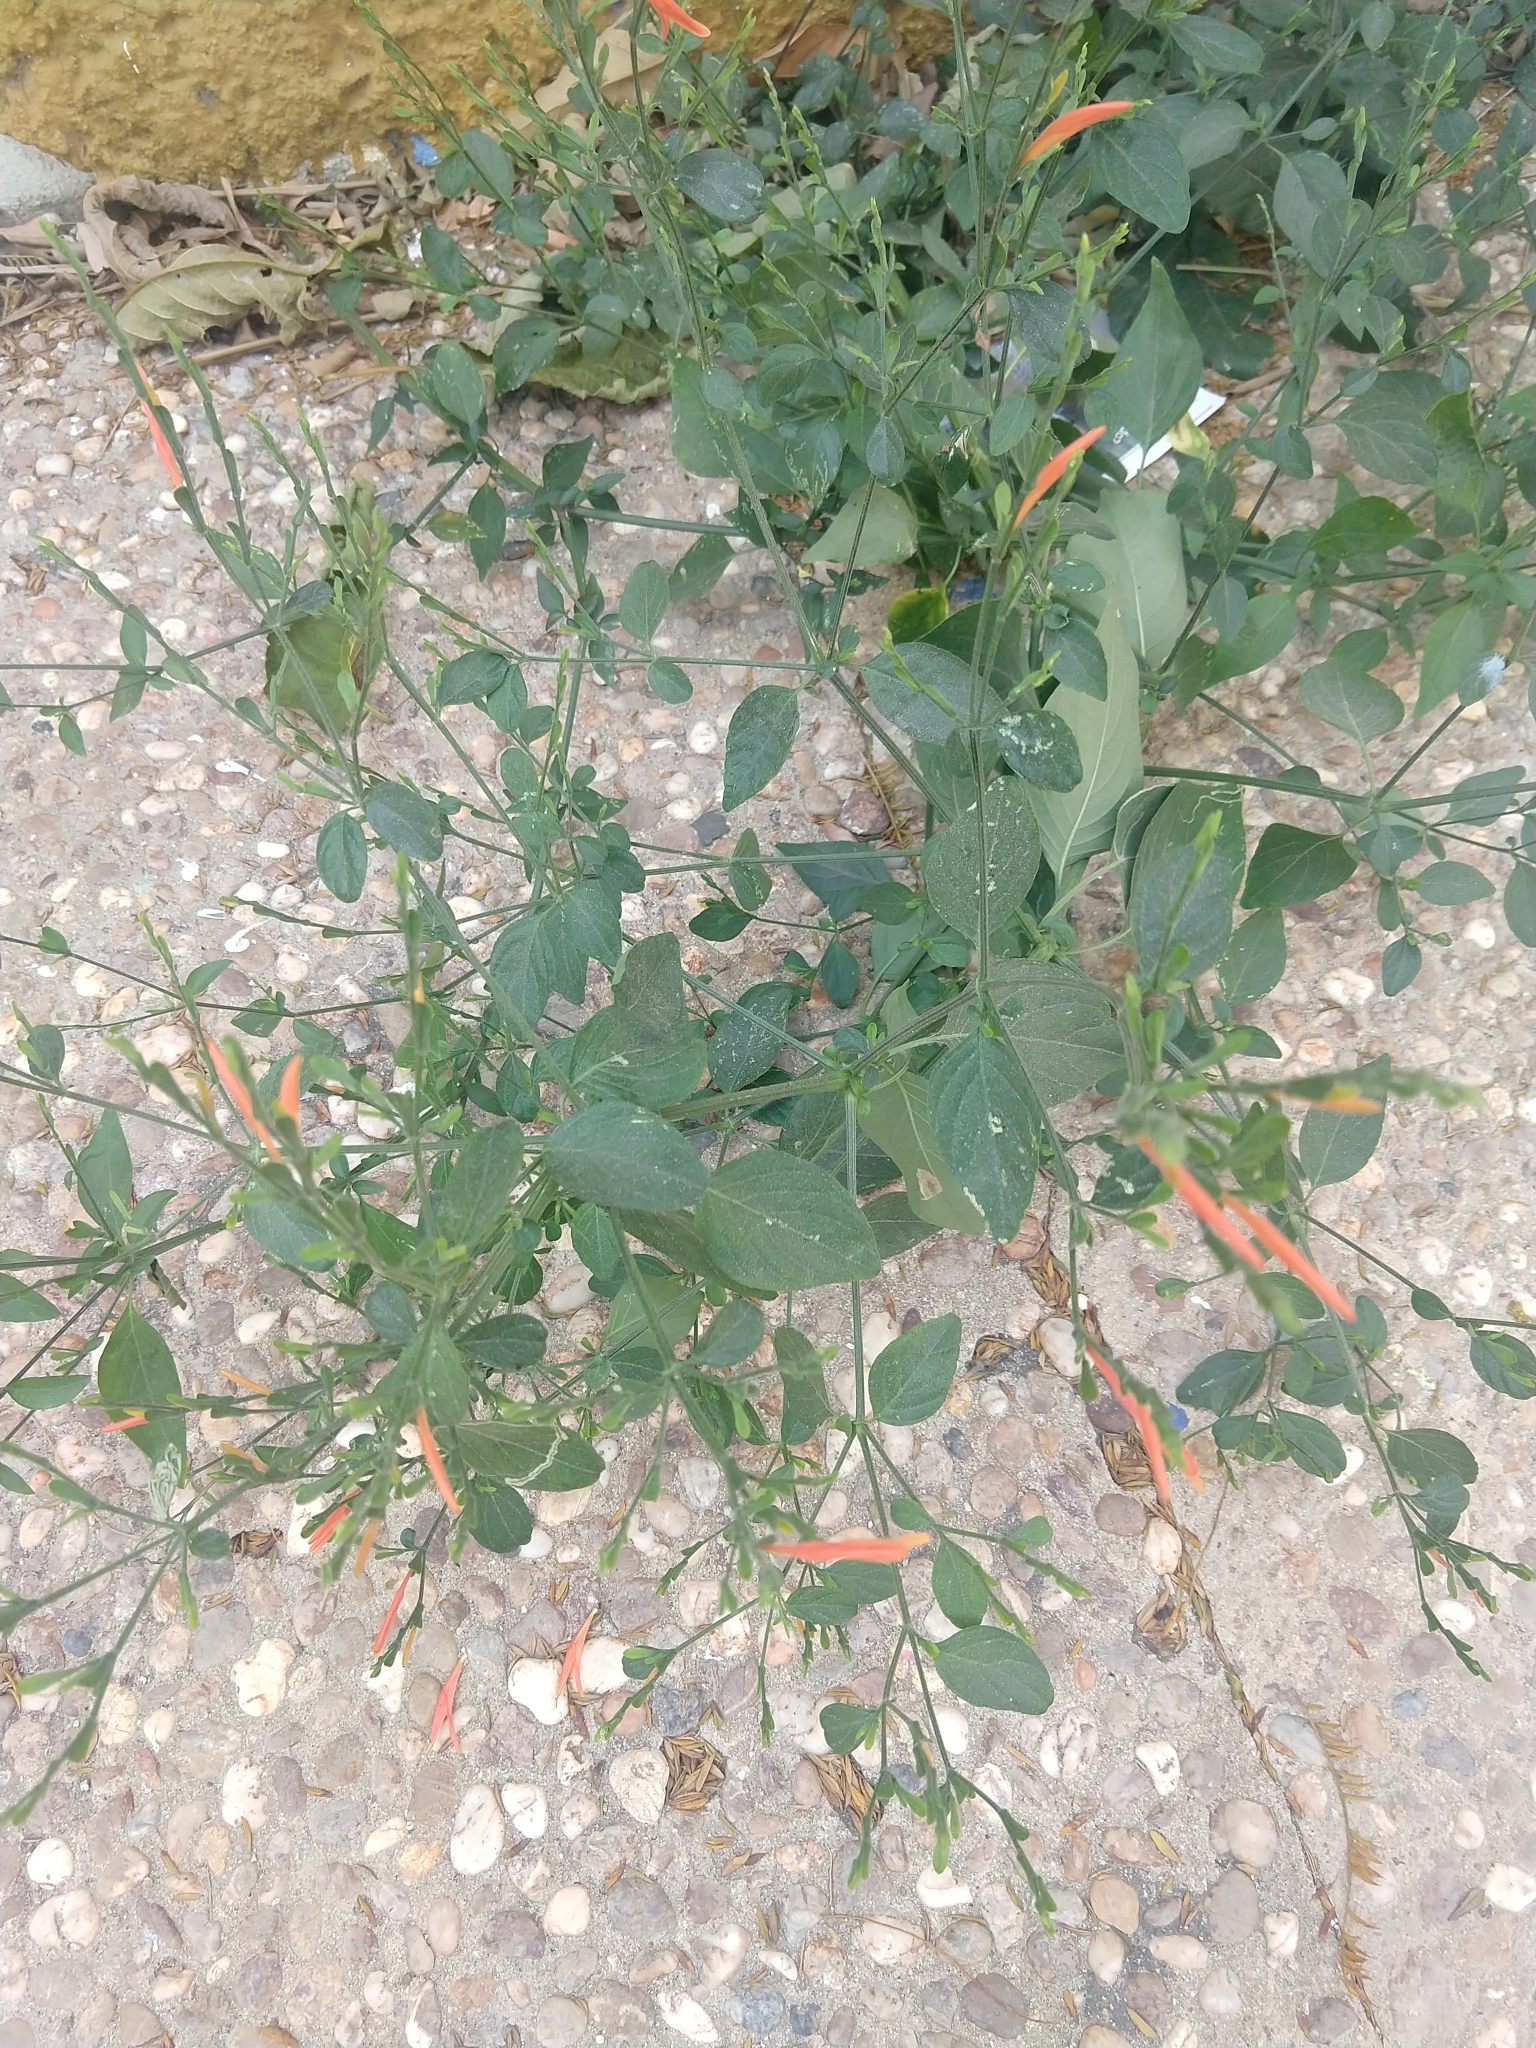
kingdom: Plantae
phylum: Tracheophyta
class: Magnoliopsida
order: Lamiales
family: Acanthaceae
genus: Dicliptera
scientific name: Dicliptera sexangularis
